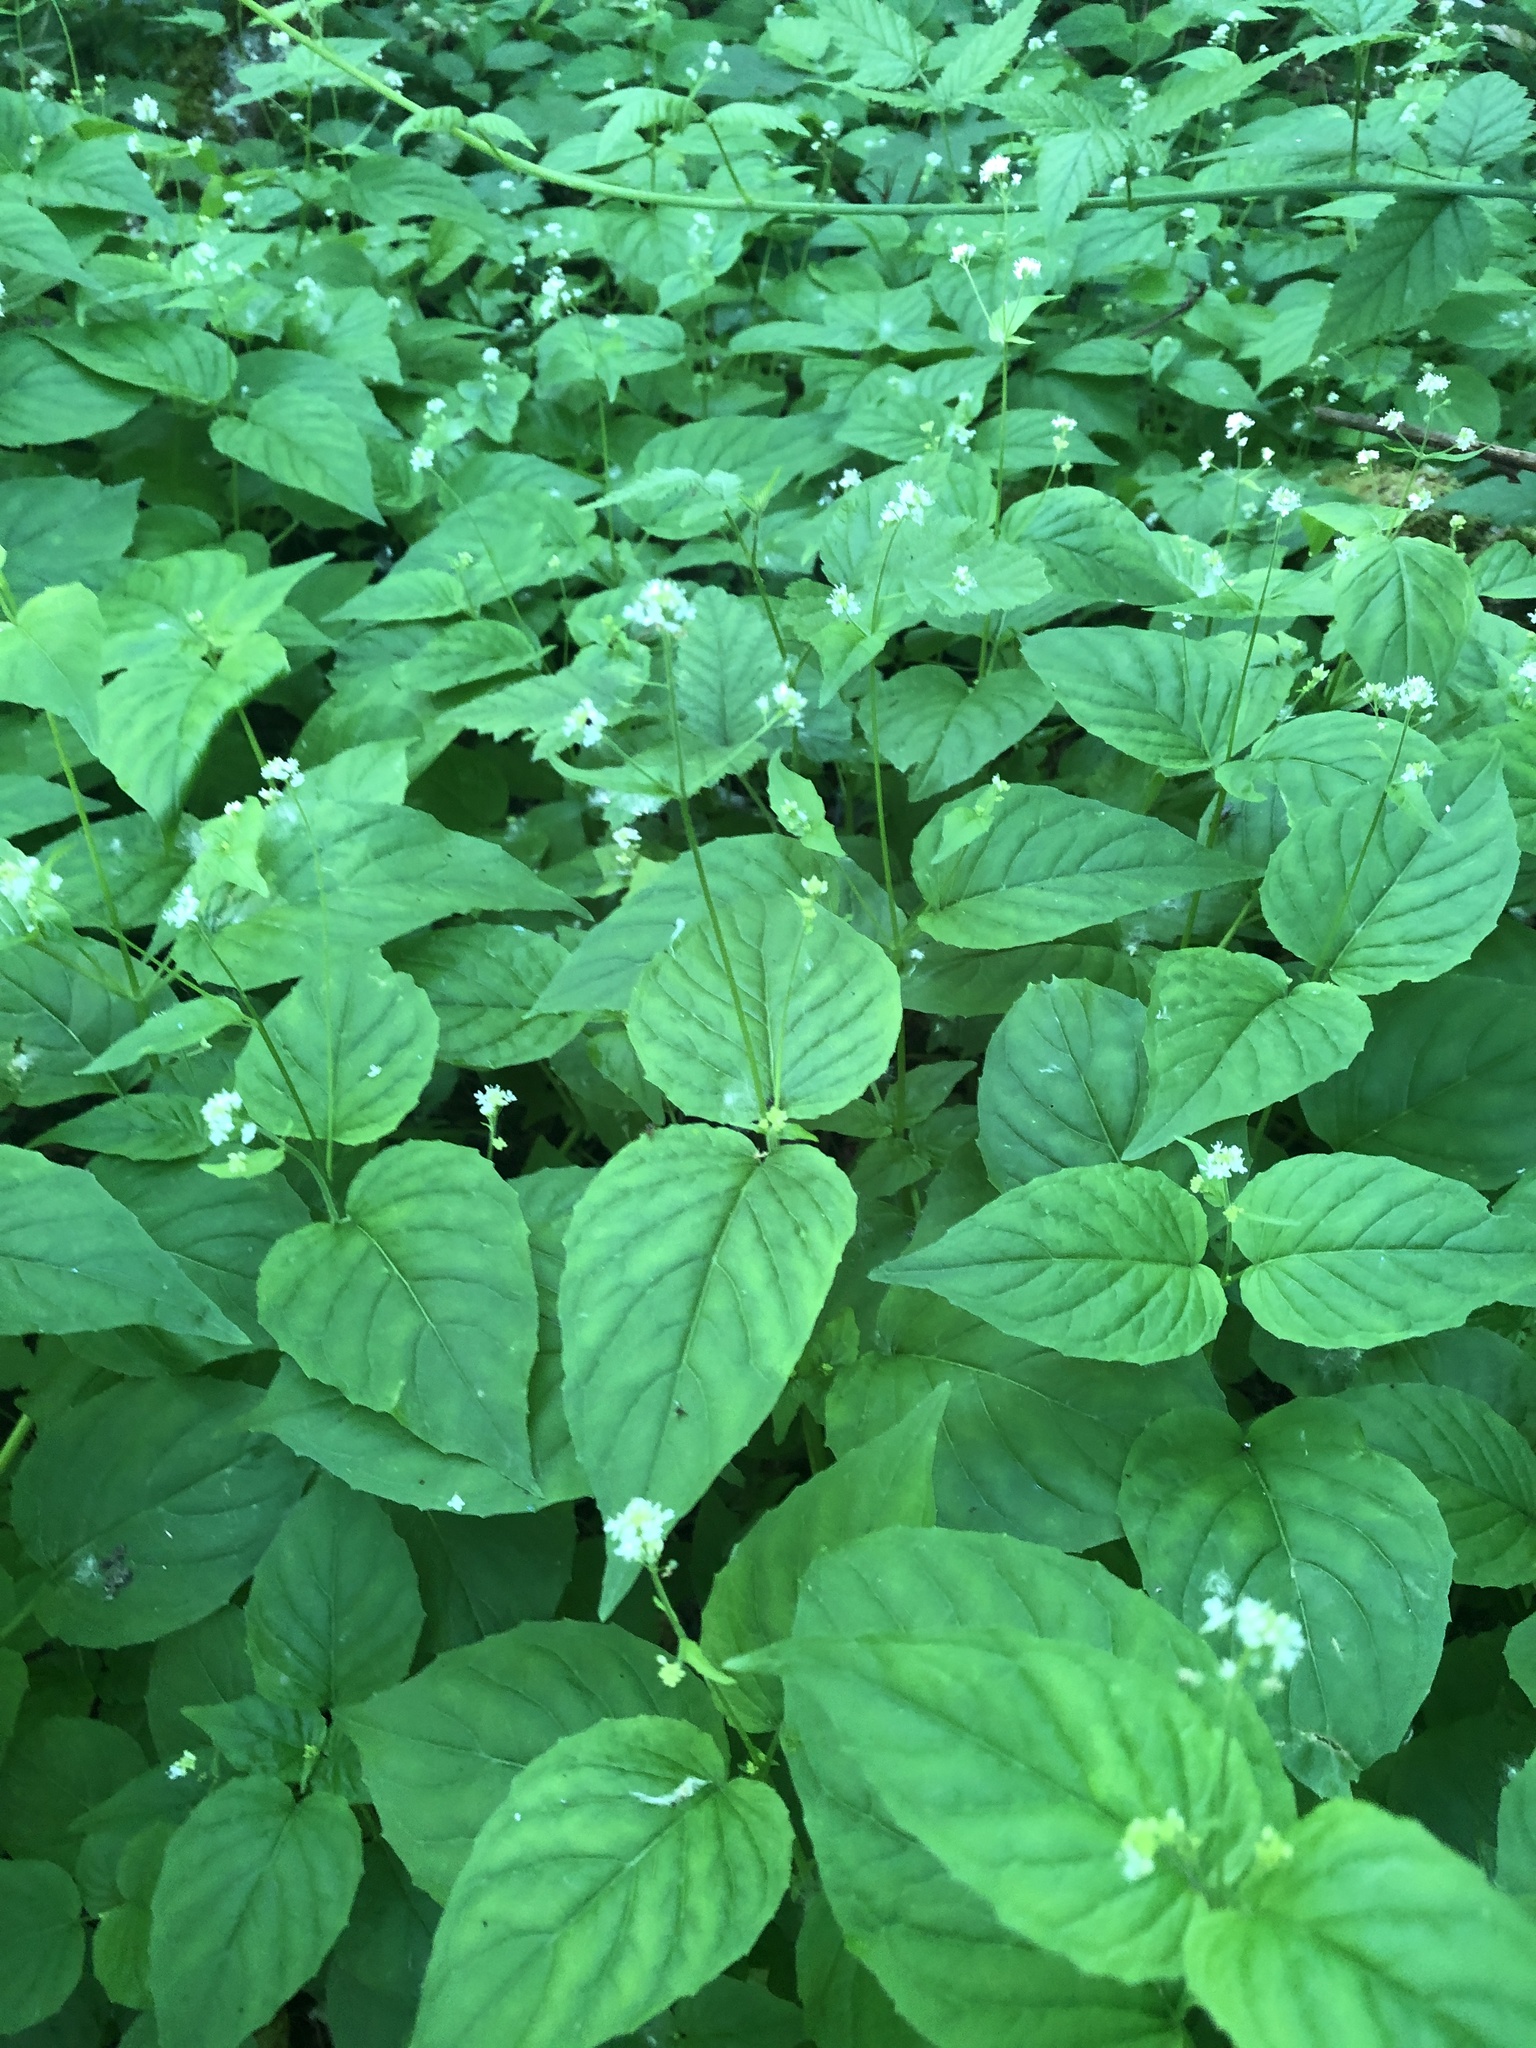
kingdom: Plantae
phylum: Tracheophyta
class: Magnoliopsida
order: Myrtales
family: Onagraceae
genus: Circaea
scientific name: Circaea alpina
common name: Alpine enchanter's-nightshade
